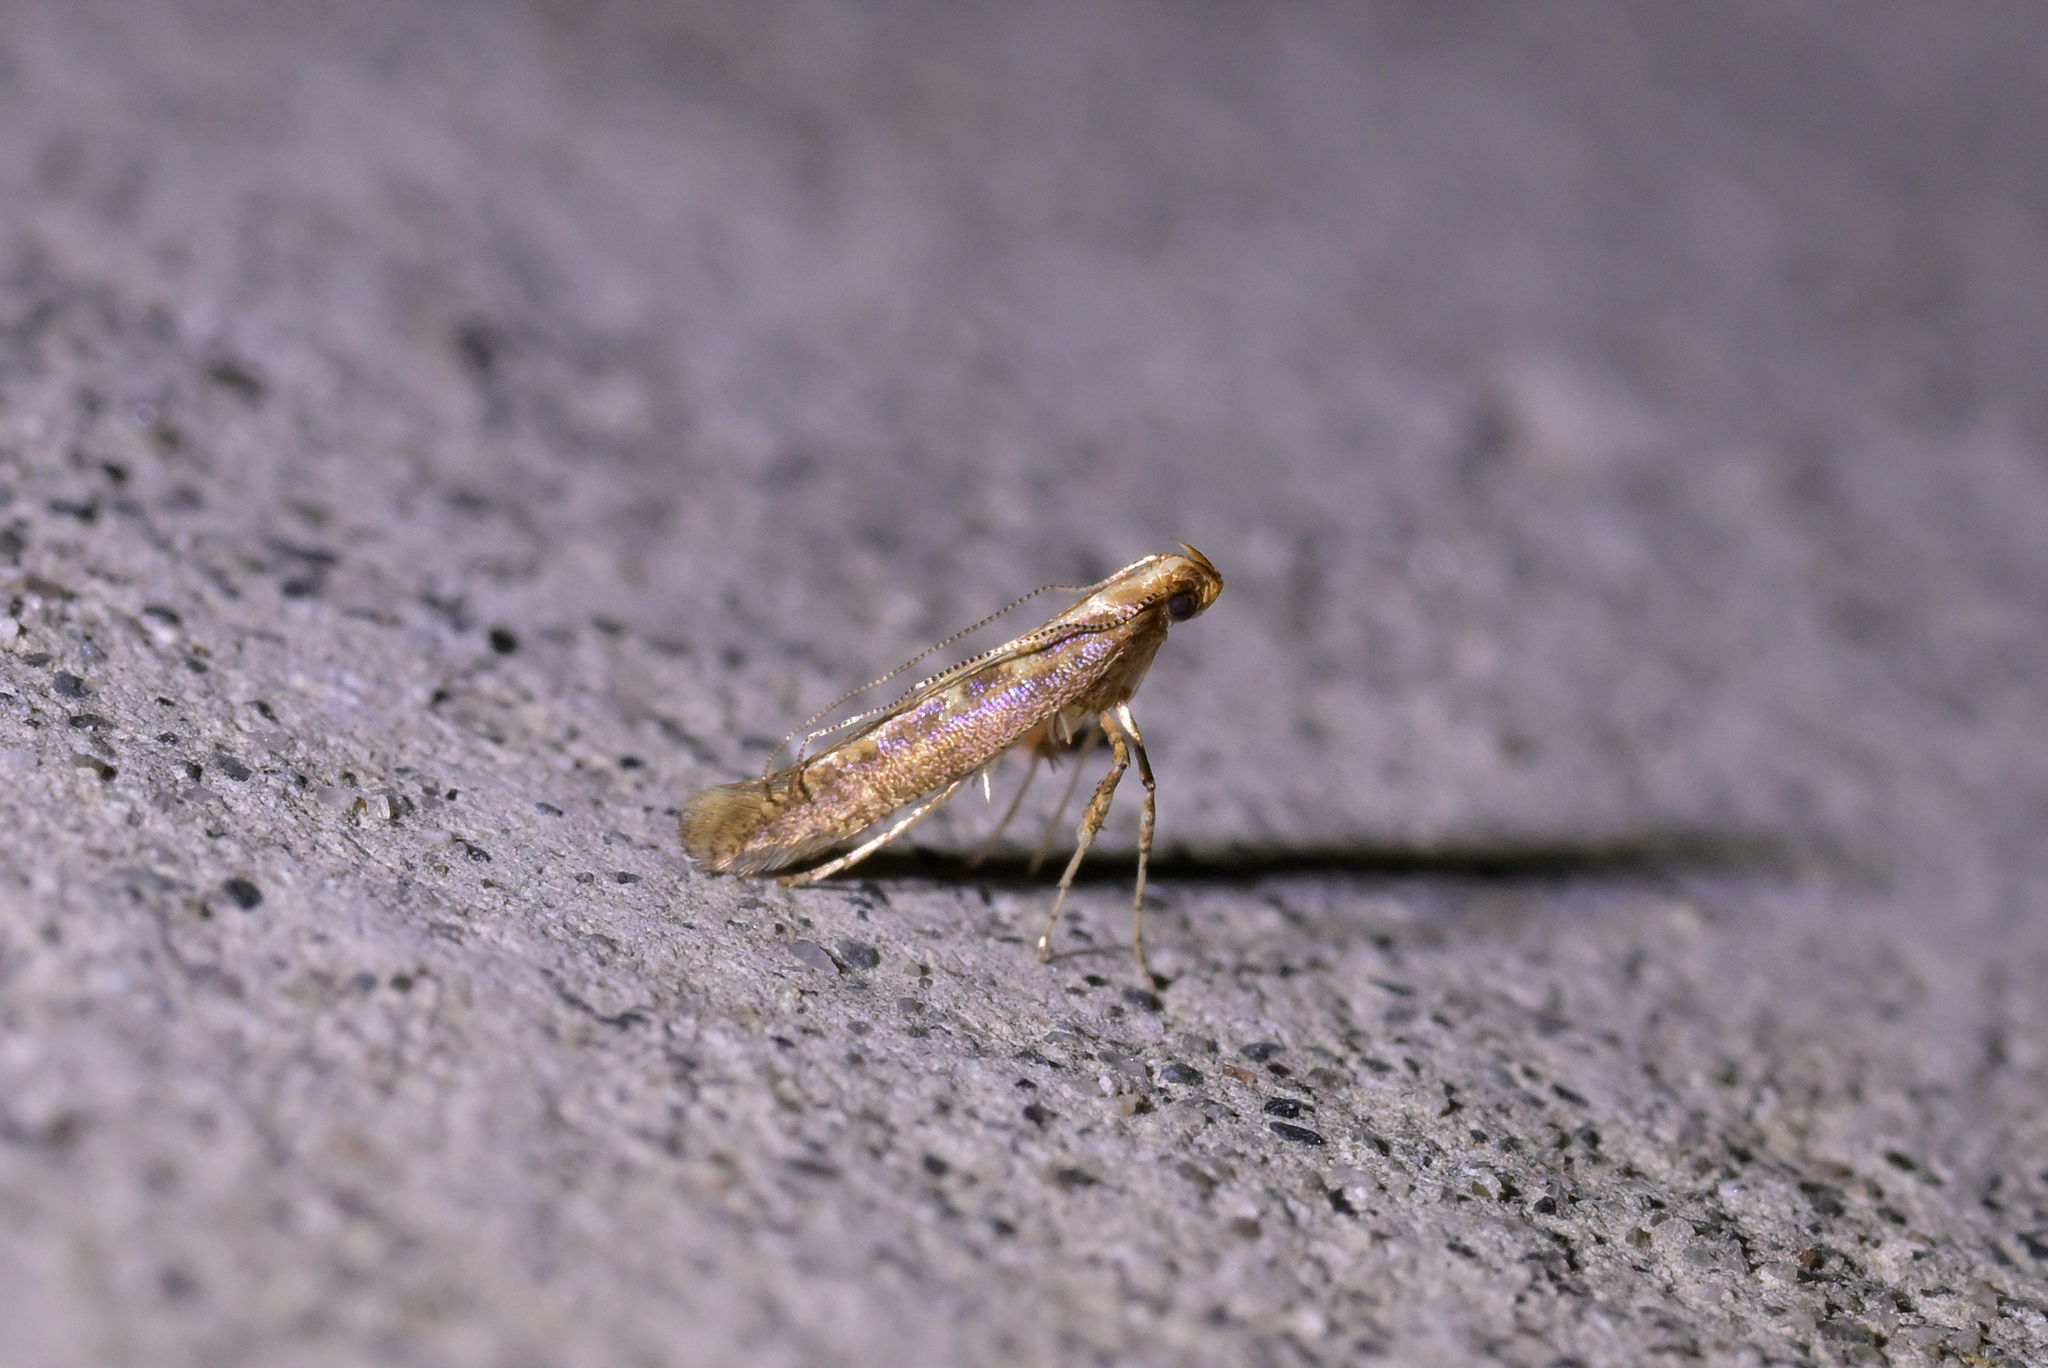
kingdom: Animalia
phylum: Arthropoda
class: Insecta
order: Lepidoptera
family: Gracillariidae
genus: Caloptilia
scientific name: Caloptilia selenitis
